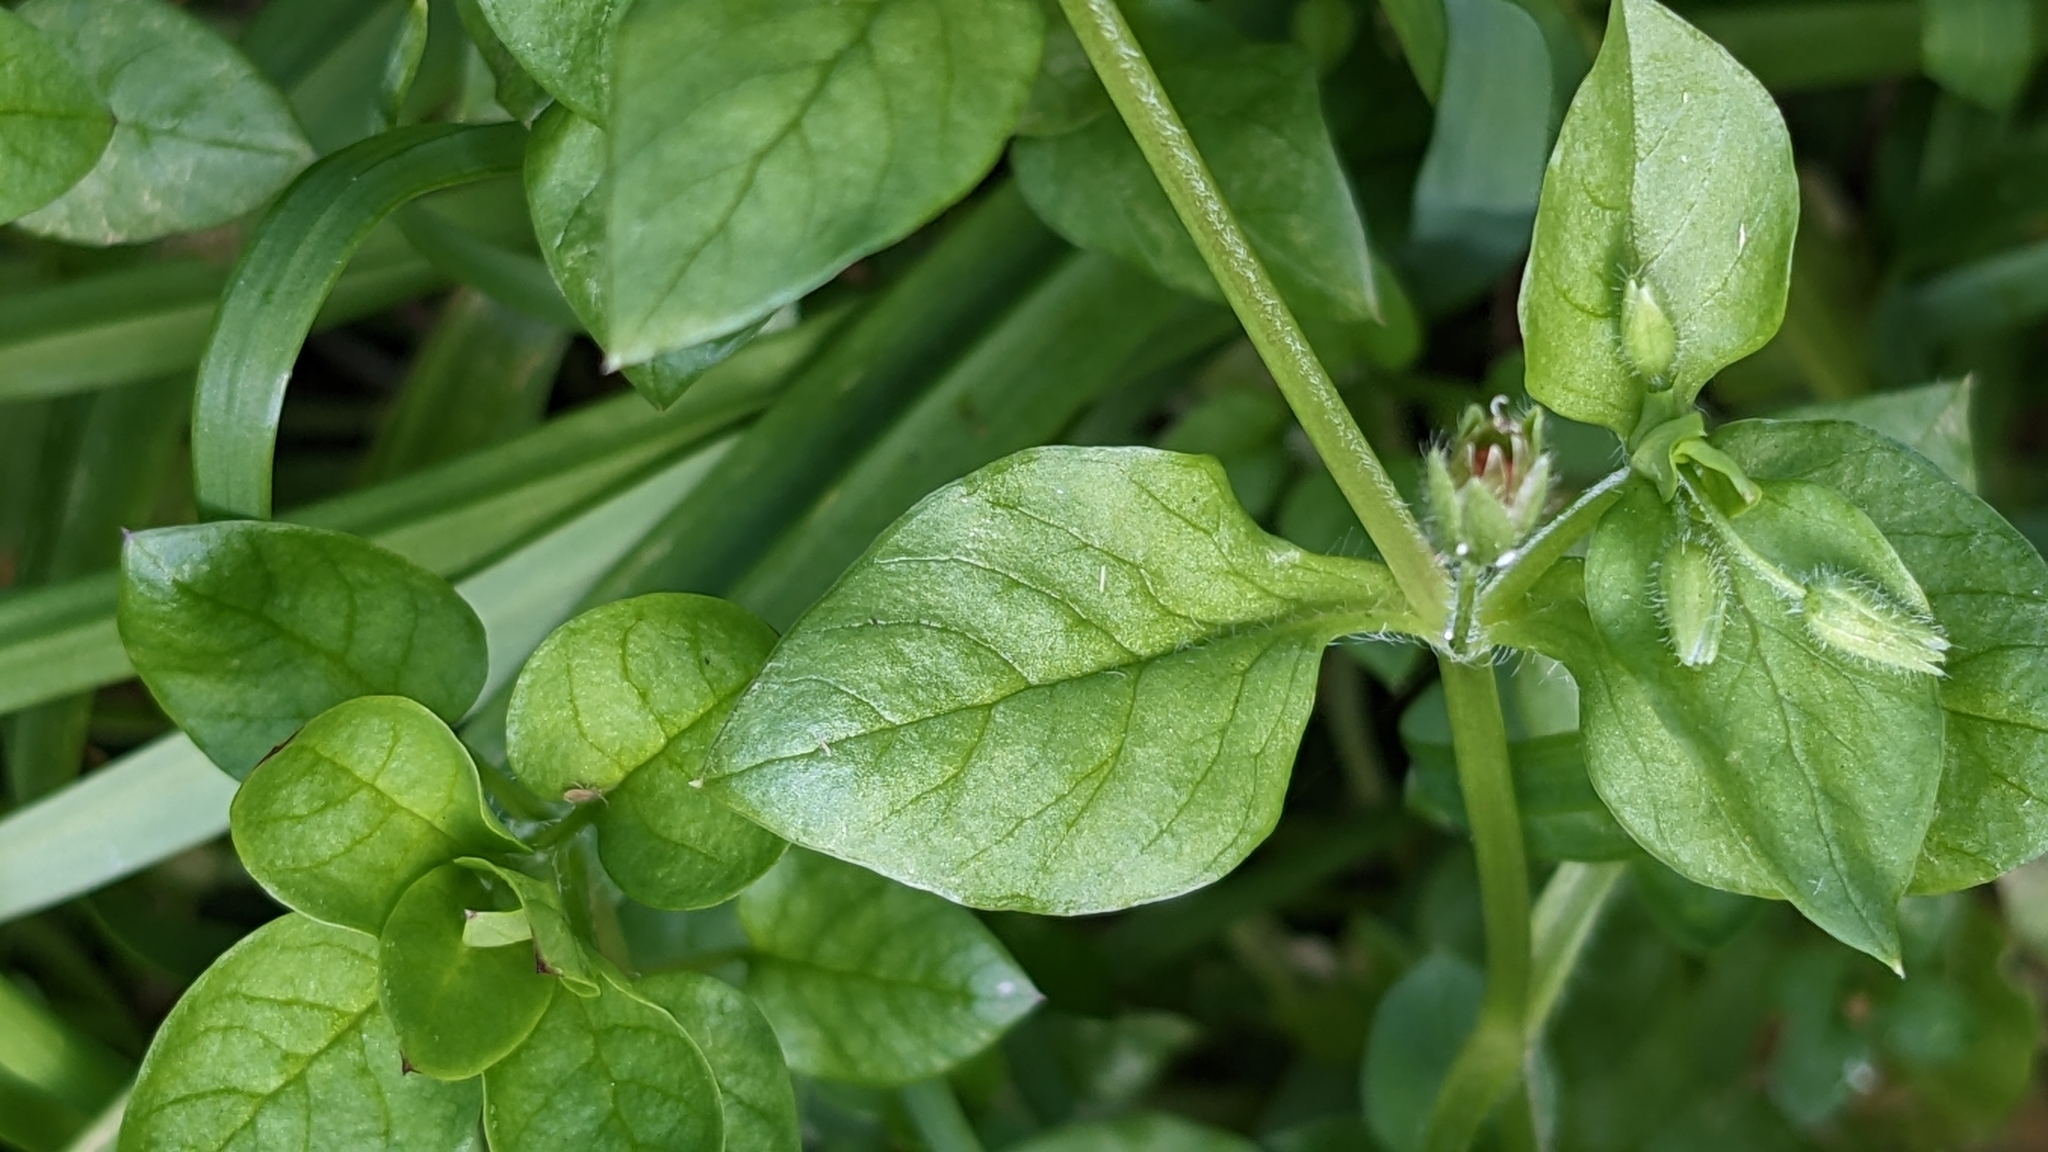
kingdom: Plantae
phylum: Tracheophyta
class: Magnoliopsida
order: Caryophyllales
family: Caryophyllaceae
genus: Stellaria
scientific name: Stellaria media
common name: Common chickweed
